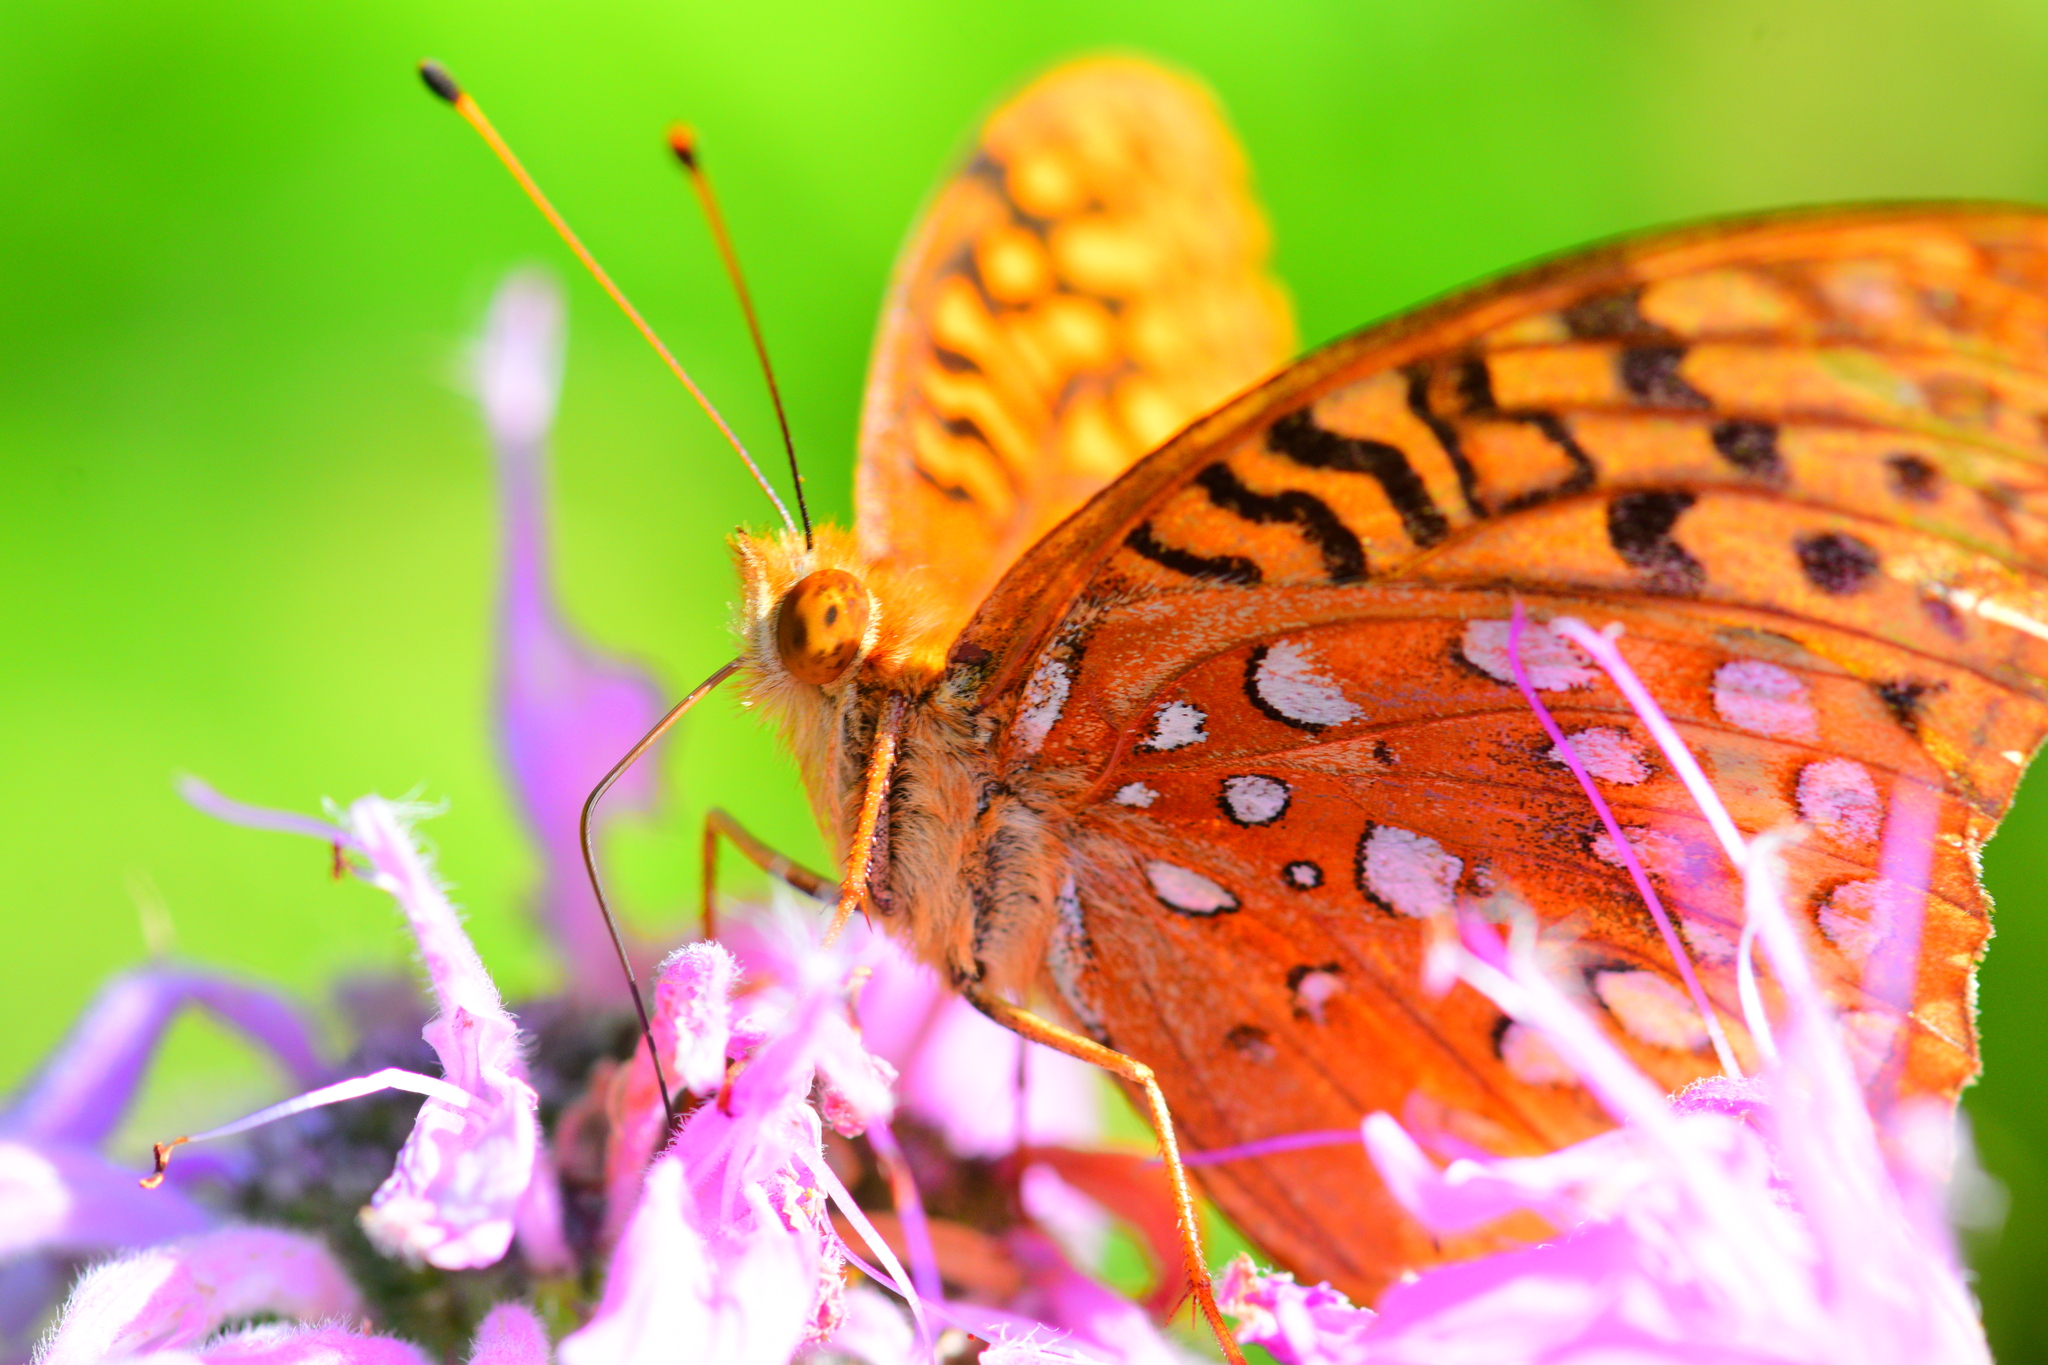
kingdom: Animalia
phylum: Arthropoda
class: Insecta
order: Lepidoptera
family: Nymphalidae
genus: Speyeria
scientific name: Speyeria cybele
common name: Great spangled fritillary
